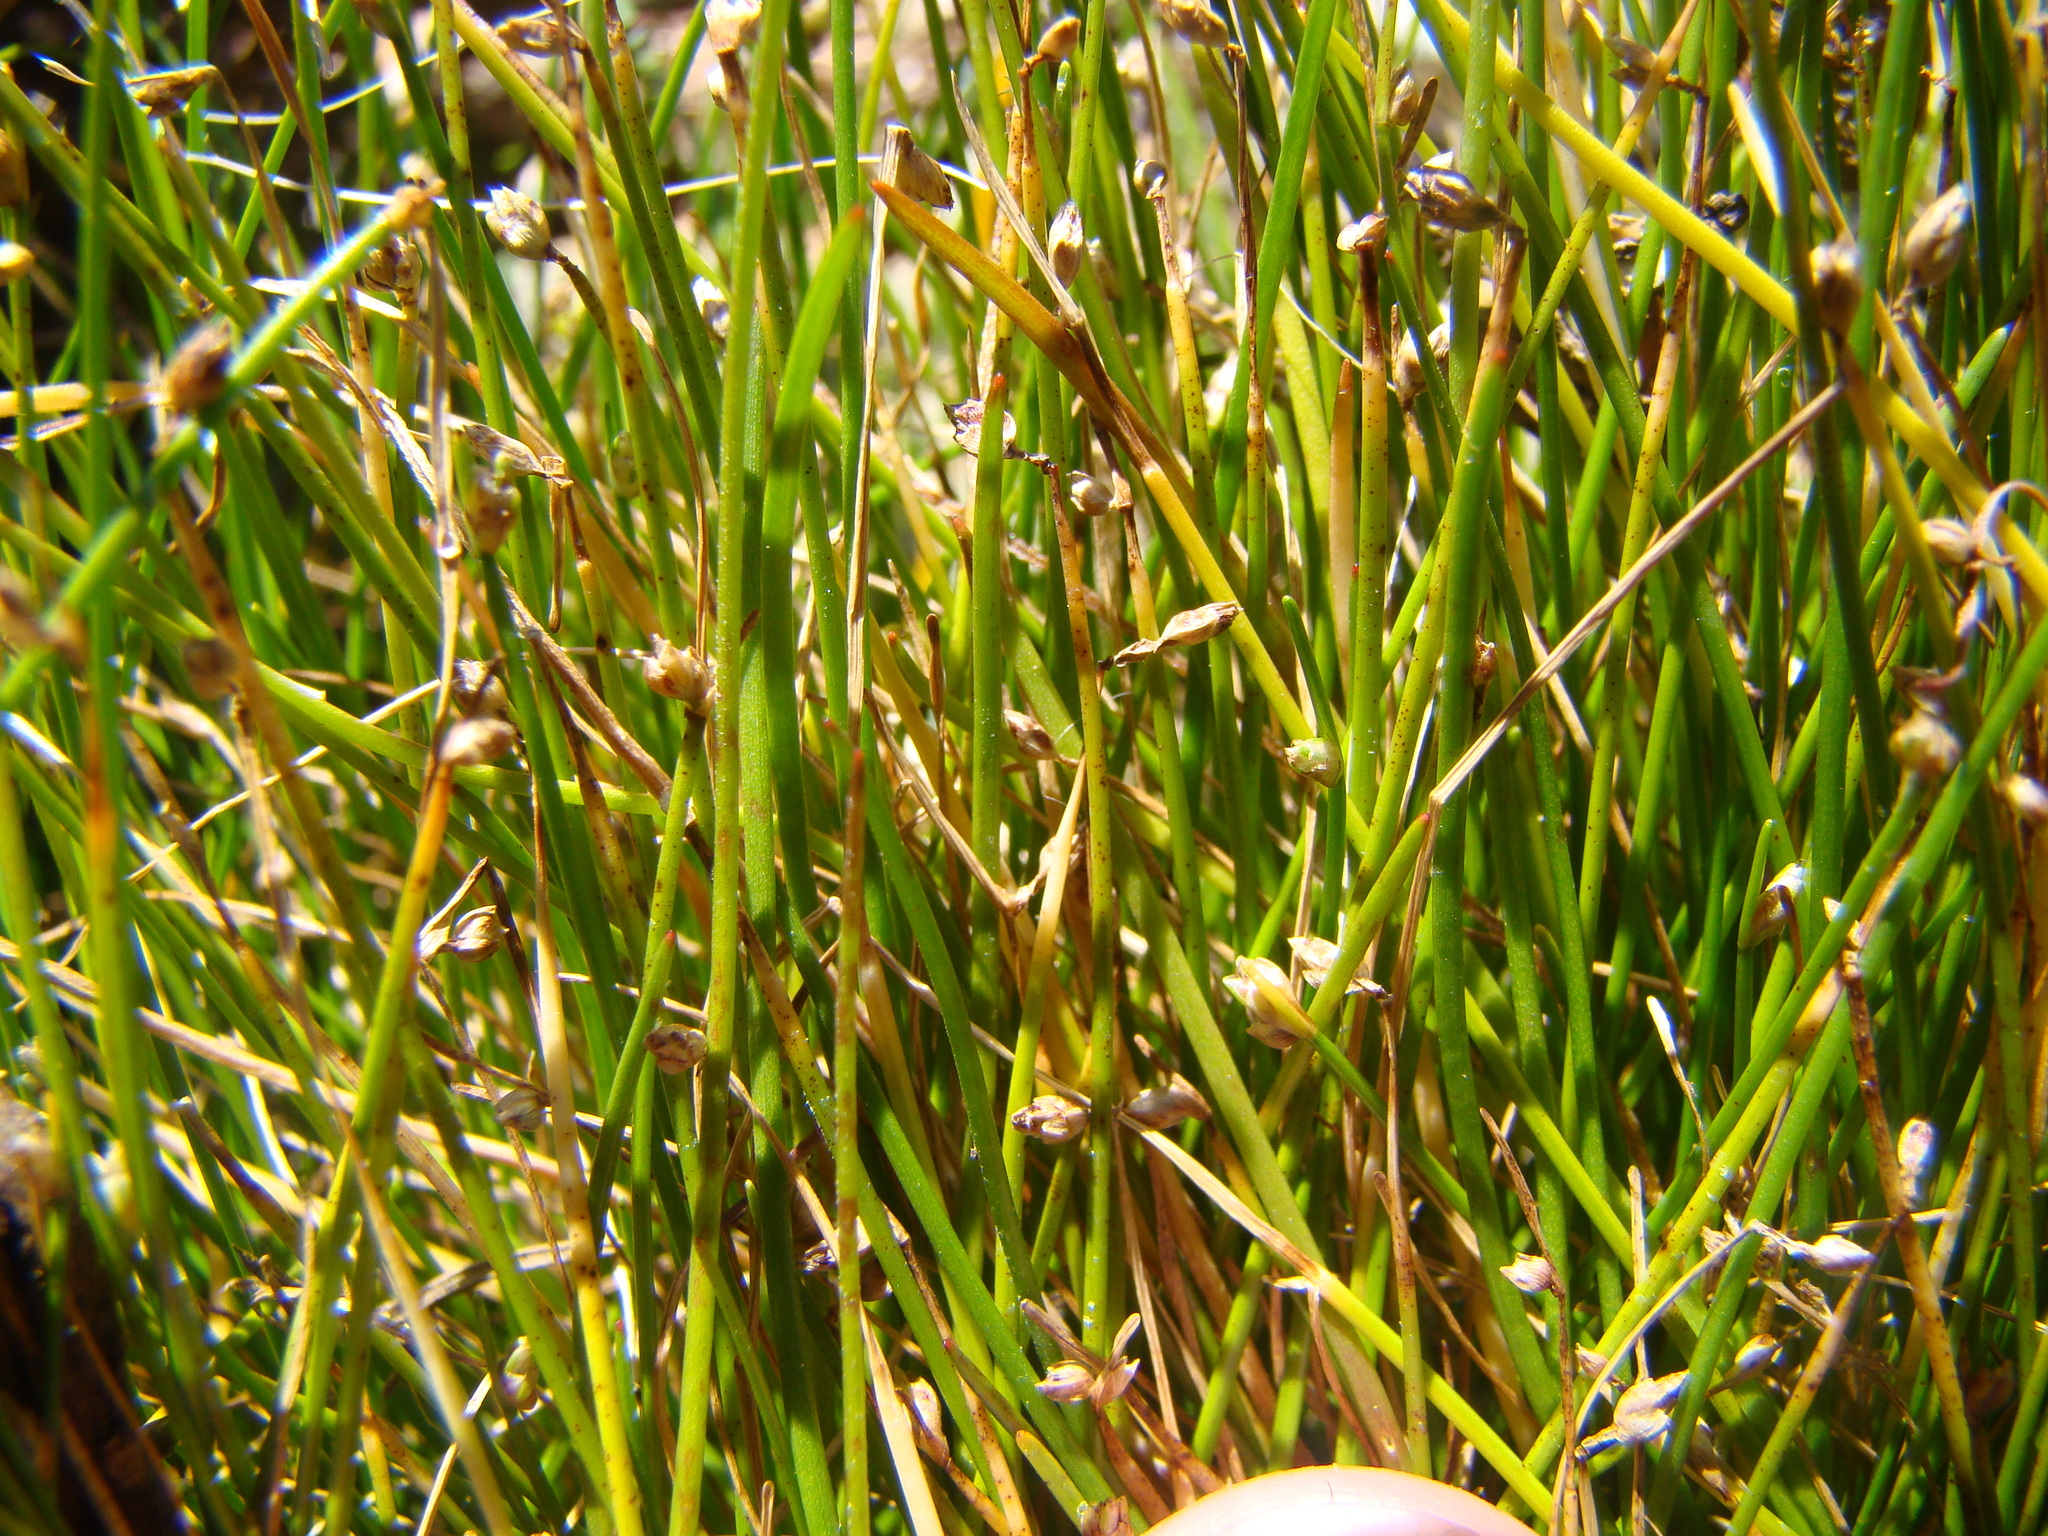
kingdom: Plantae
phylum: Tracheophyta
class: Liliopsida
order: Poales
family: Cyperaceae
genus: Isolepis
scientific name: Isolepis cernua
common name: Slender club-rush
